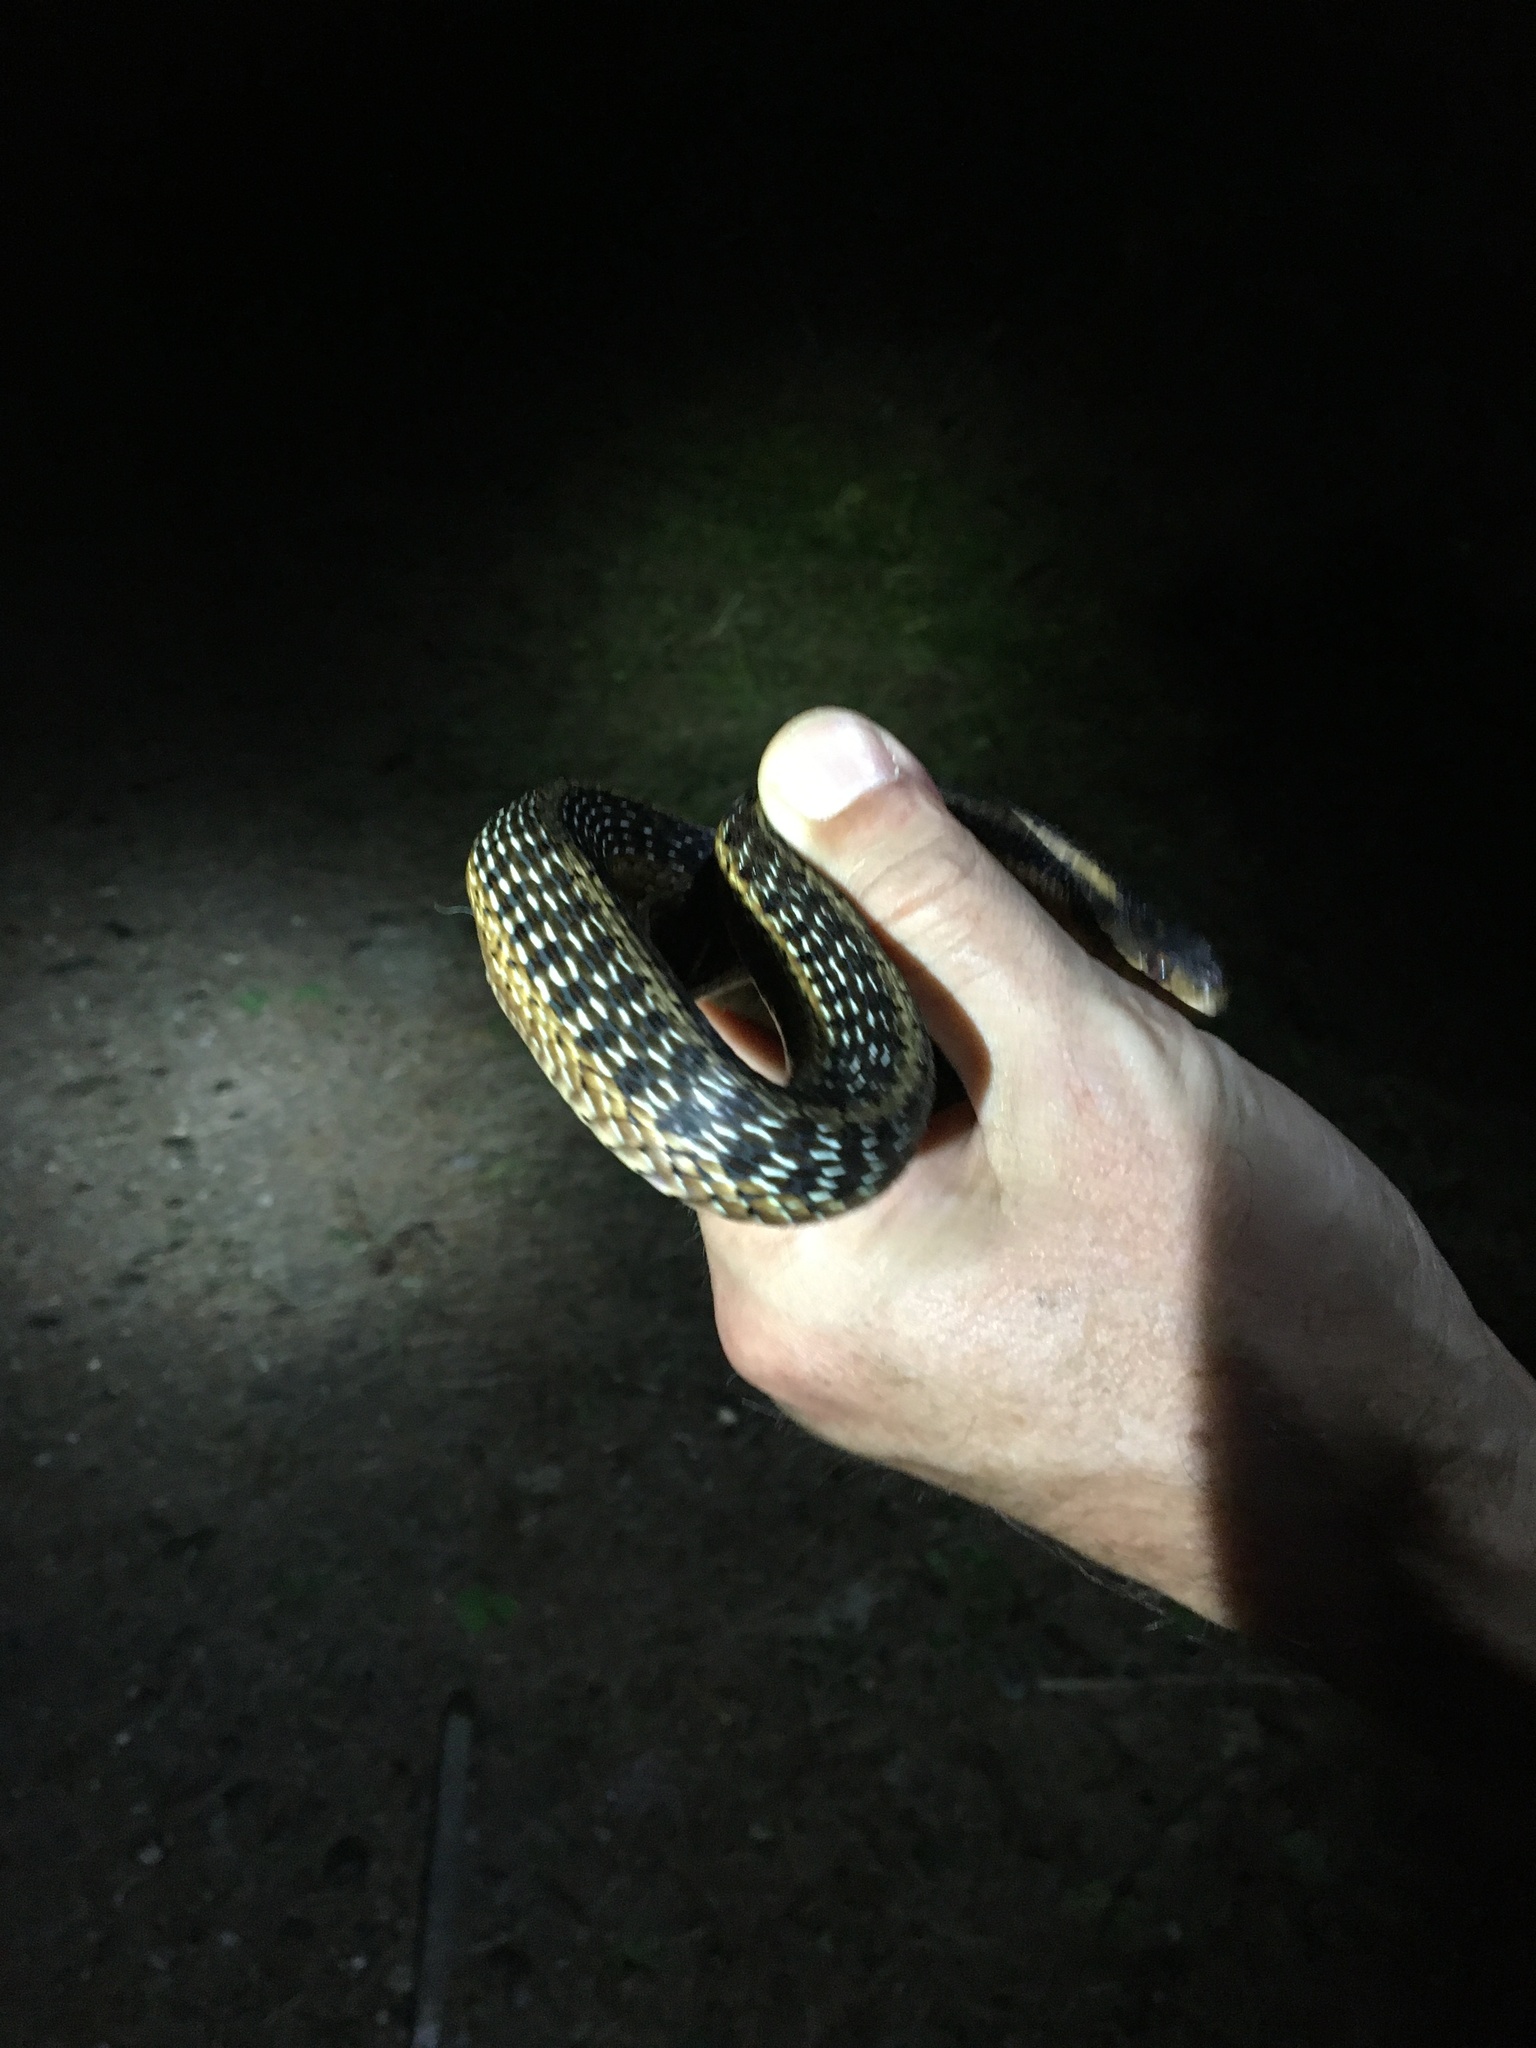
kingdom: Animalia
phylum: Chordata
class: Squamata
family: Colubridae
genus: Thamnophis
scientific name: Thamnophis sirtalis
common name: Common garter snake
